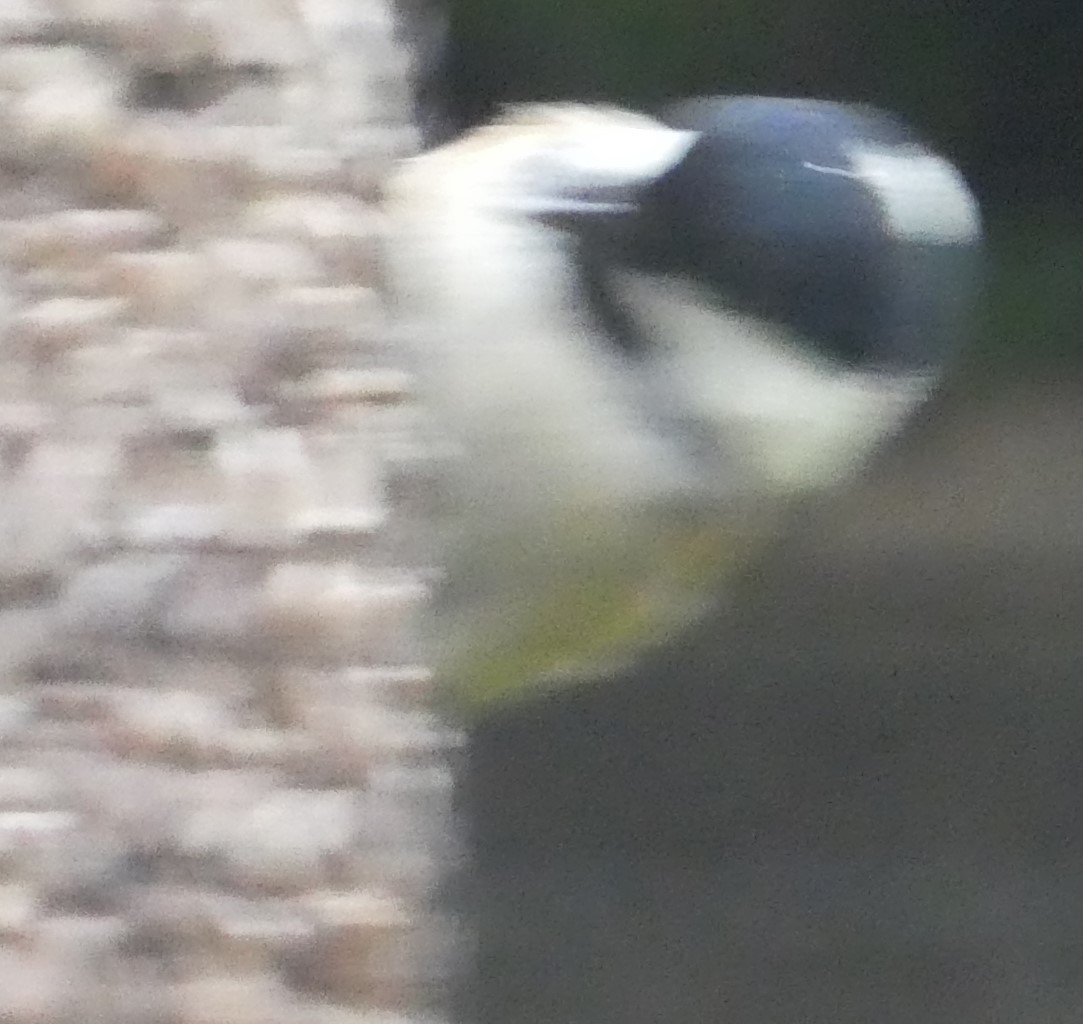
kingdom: Animalia
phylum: Chordata
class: Aves
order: Passeriformes
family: Paridae
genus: Periparus
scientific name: Periparus ater
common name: Coal tit
